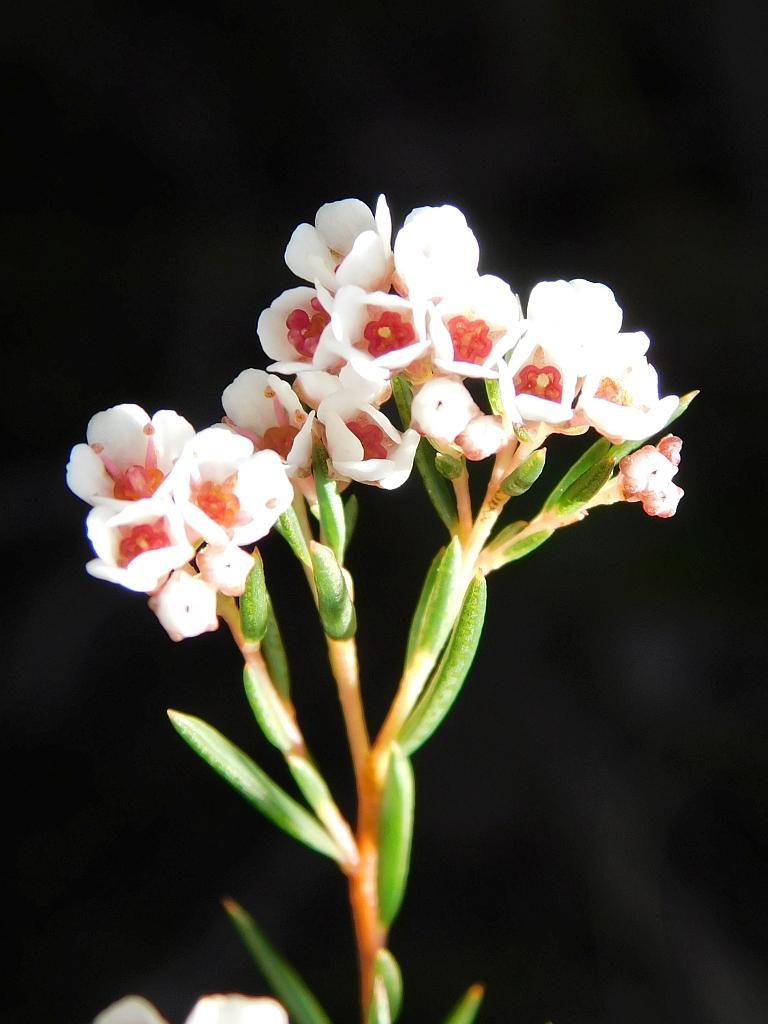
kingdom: Plantae
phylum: Tracheophyta
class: Magnoliopsida
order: Sapindales
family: Rutaceae
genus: Diosma
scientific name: Diosma hirsuta
